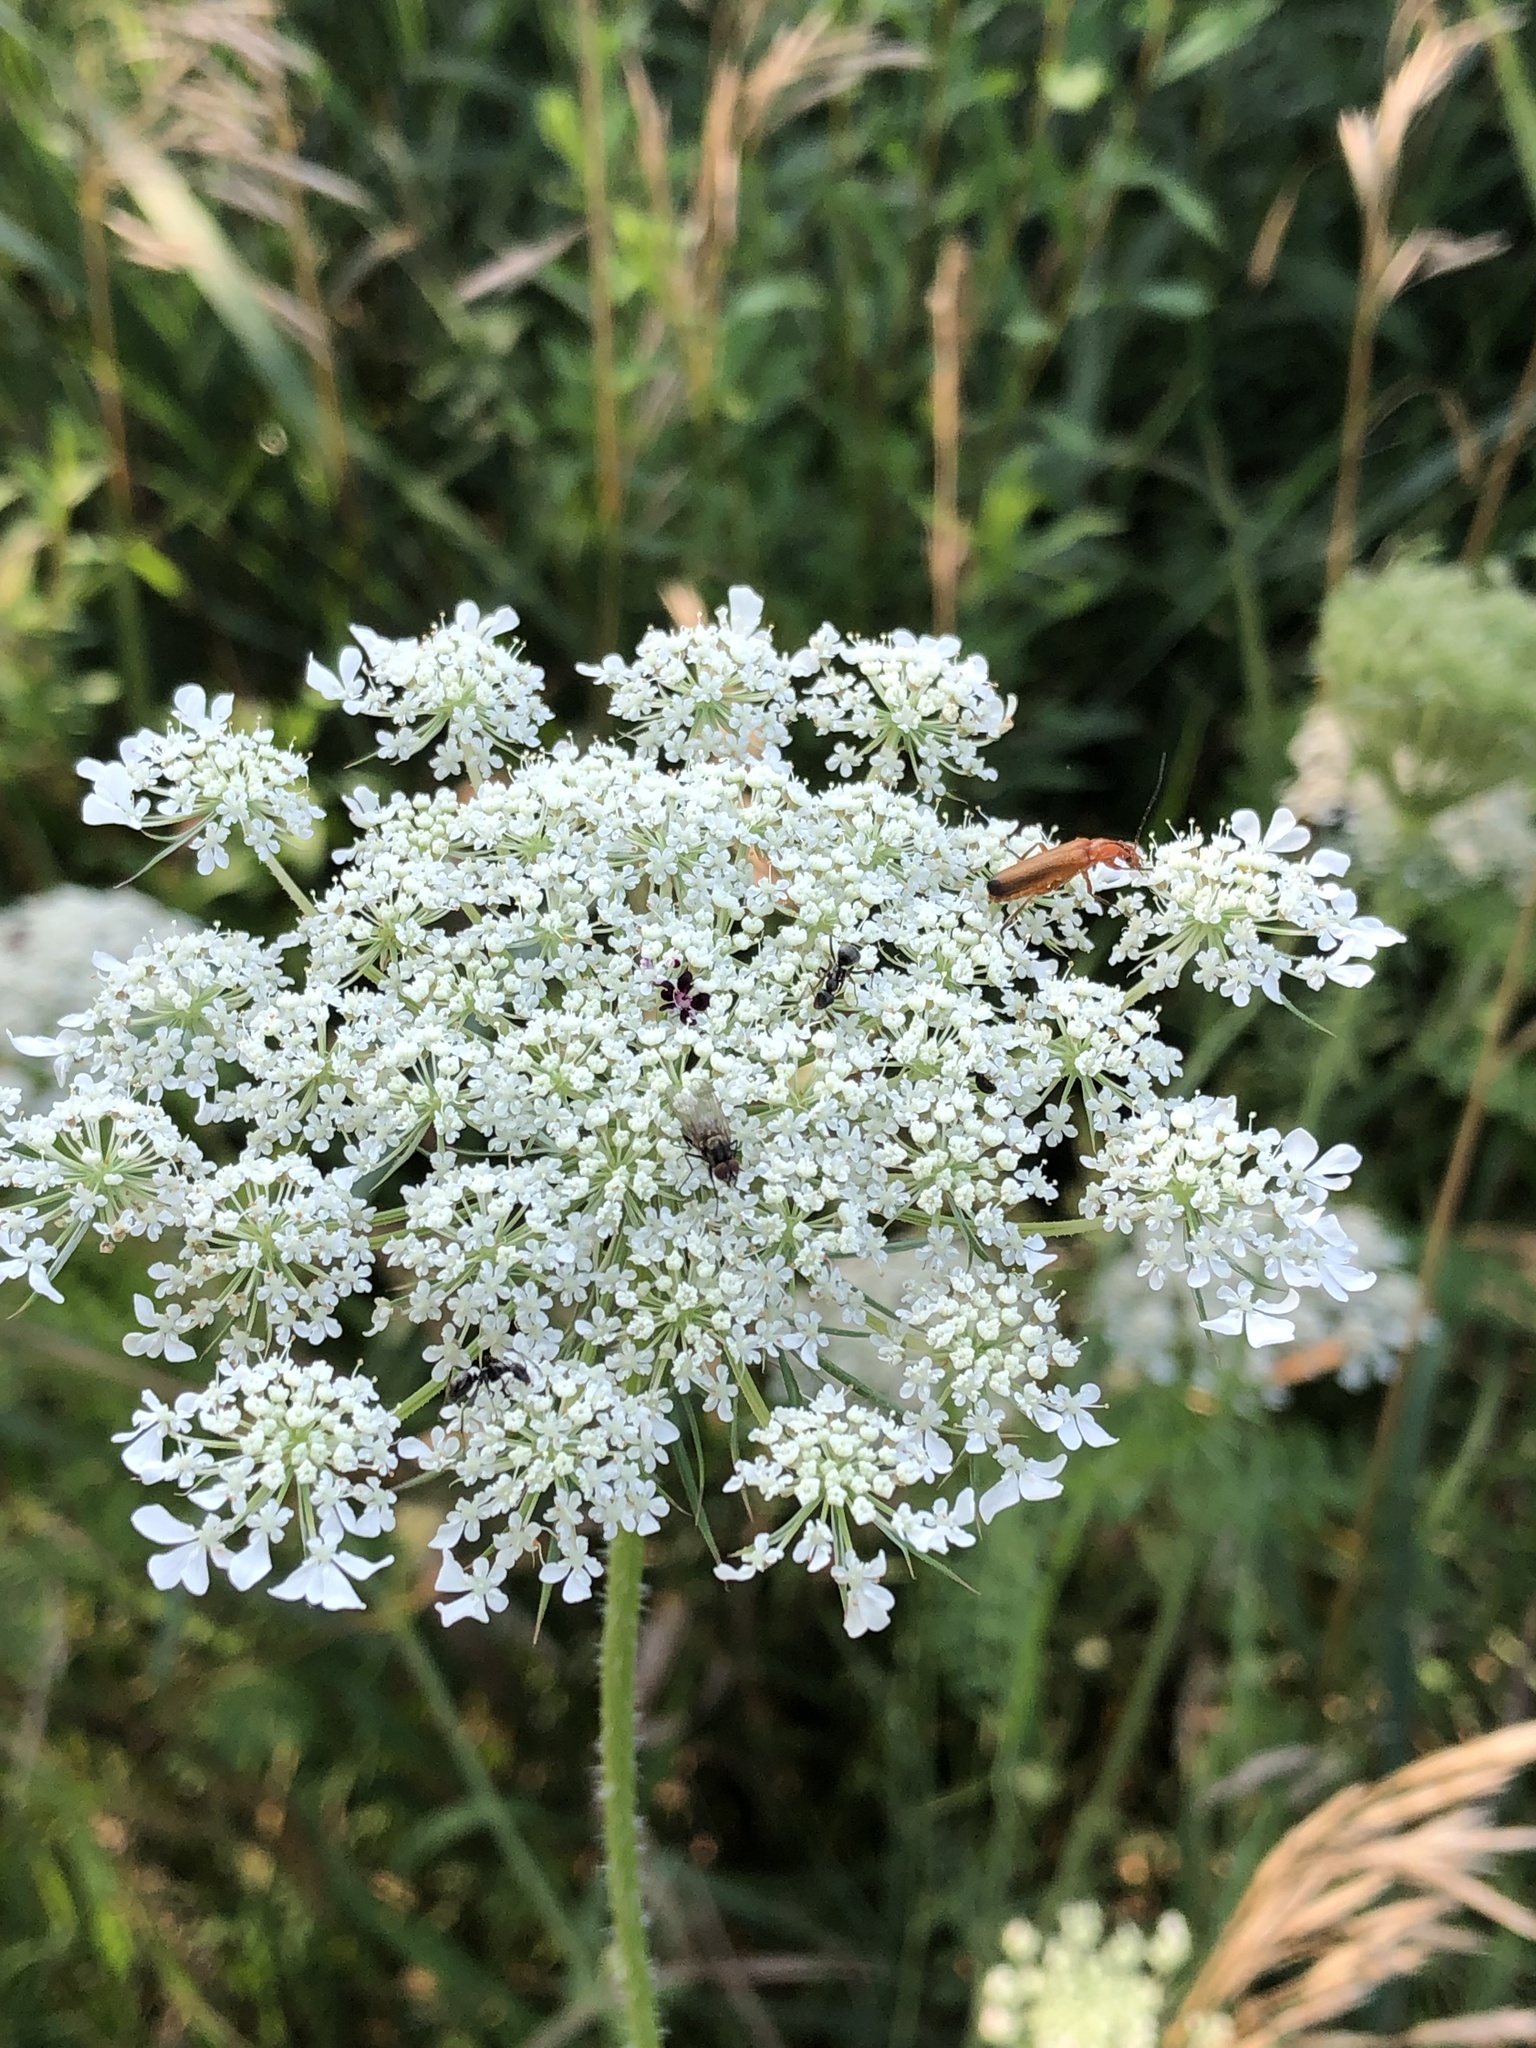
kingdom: Plantae
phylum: Tracheophyta
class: Magnoliopsida
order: Apiales
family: Apiaceae
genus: Daucus
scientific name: Daucus carota
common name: Wild carrot
